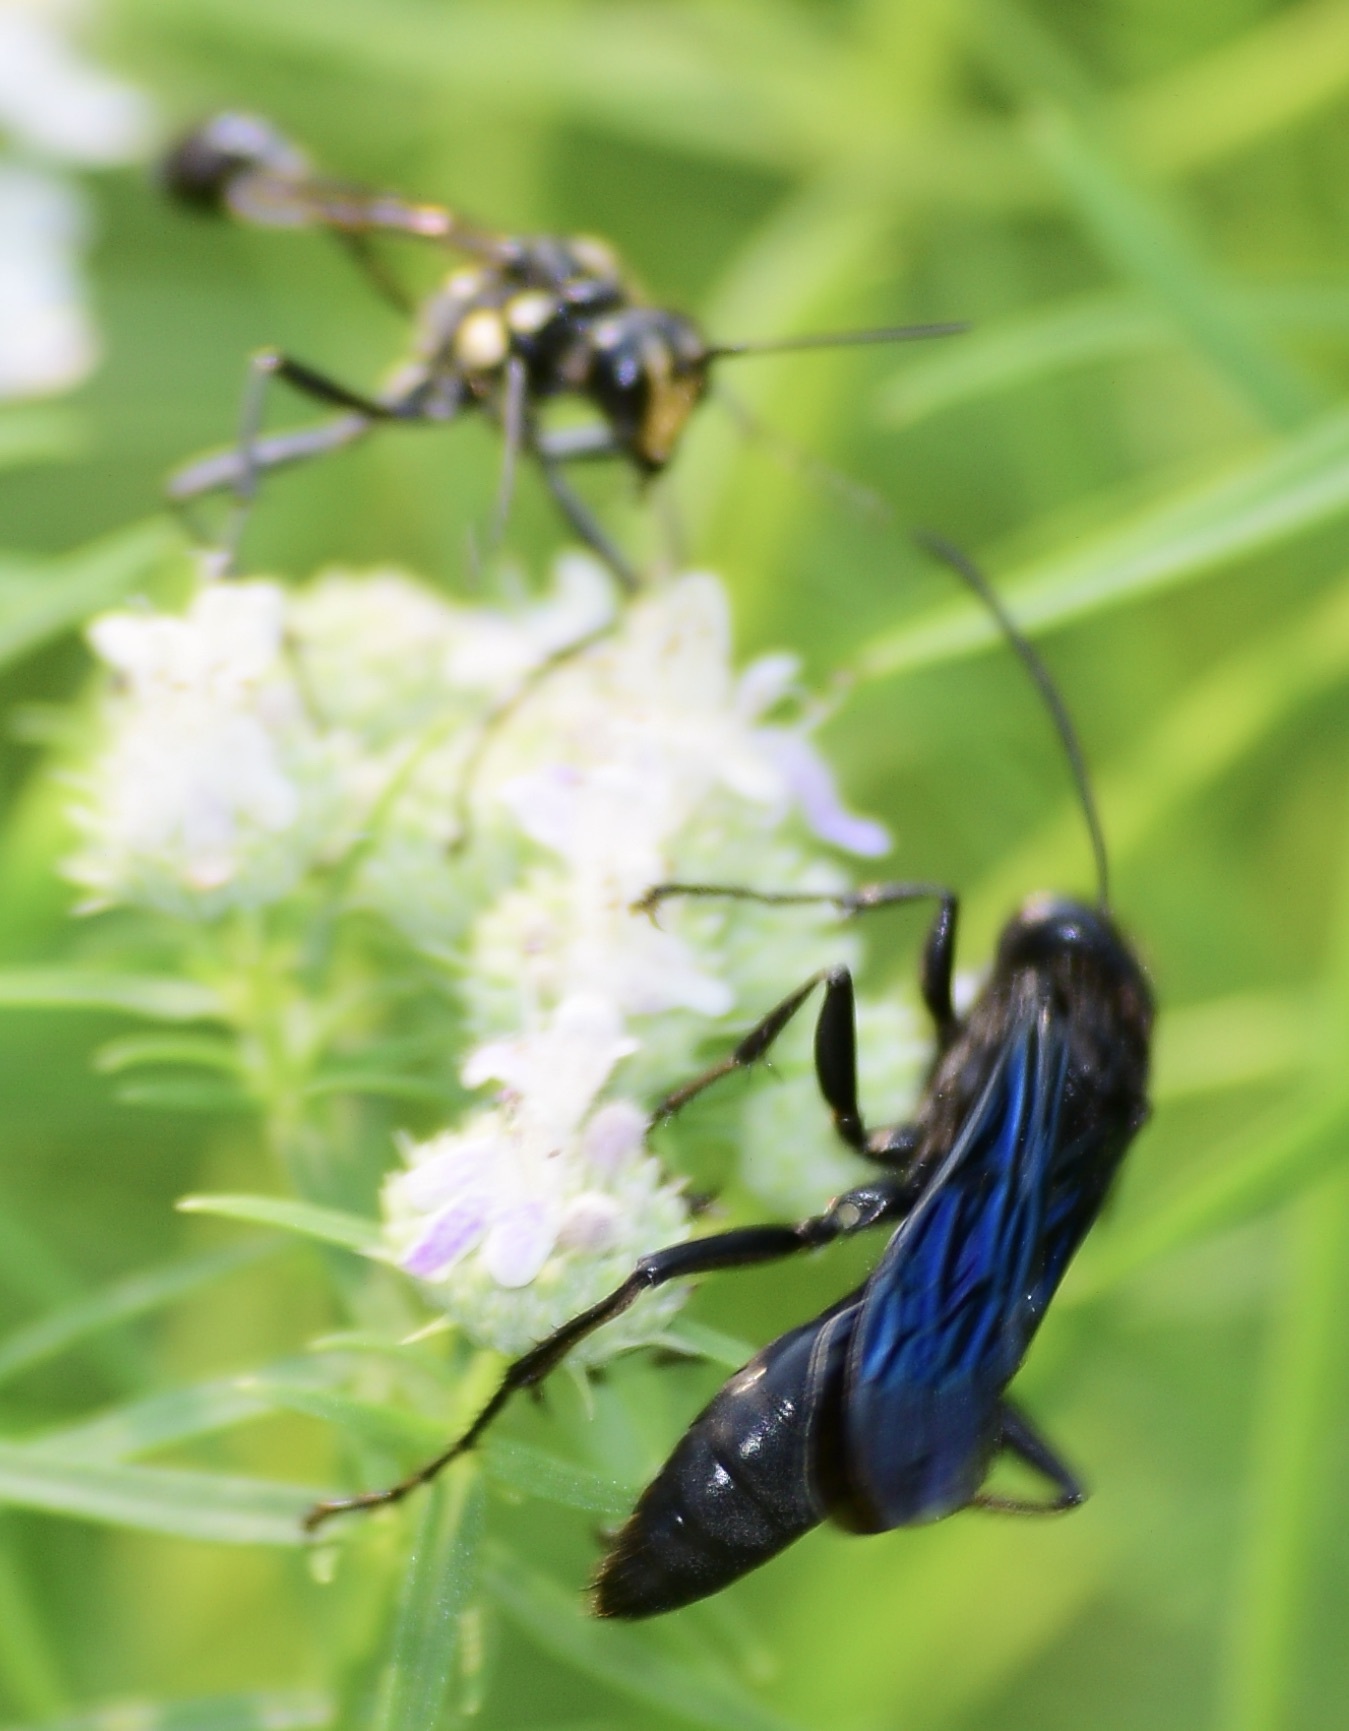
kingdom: Animalia
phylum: Arthropoda
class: Insecta
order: Hymenoptera
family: Sphecidae
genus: Sphex
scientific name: Sphex pensylvanicus
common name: Great black digger wasp
